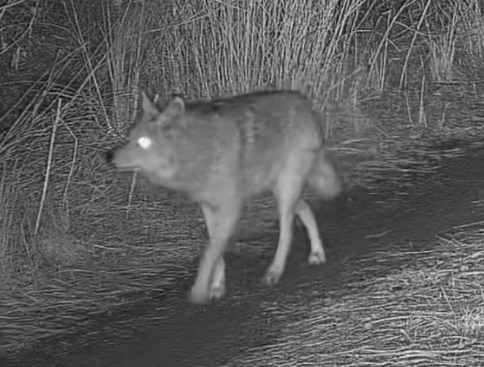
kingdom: Animalia
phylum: Chordata
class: Mammalia
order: Carnivora
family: Canidae
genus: Canis
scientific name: Canis latrans
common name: Coyote
